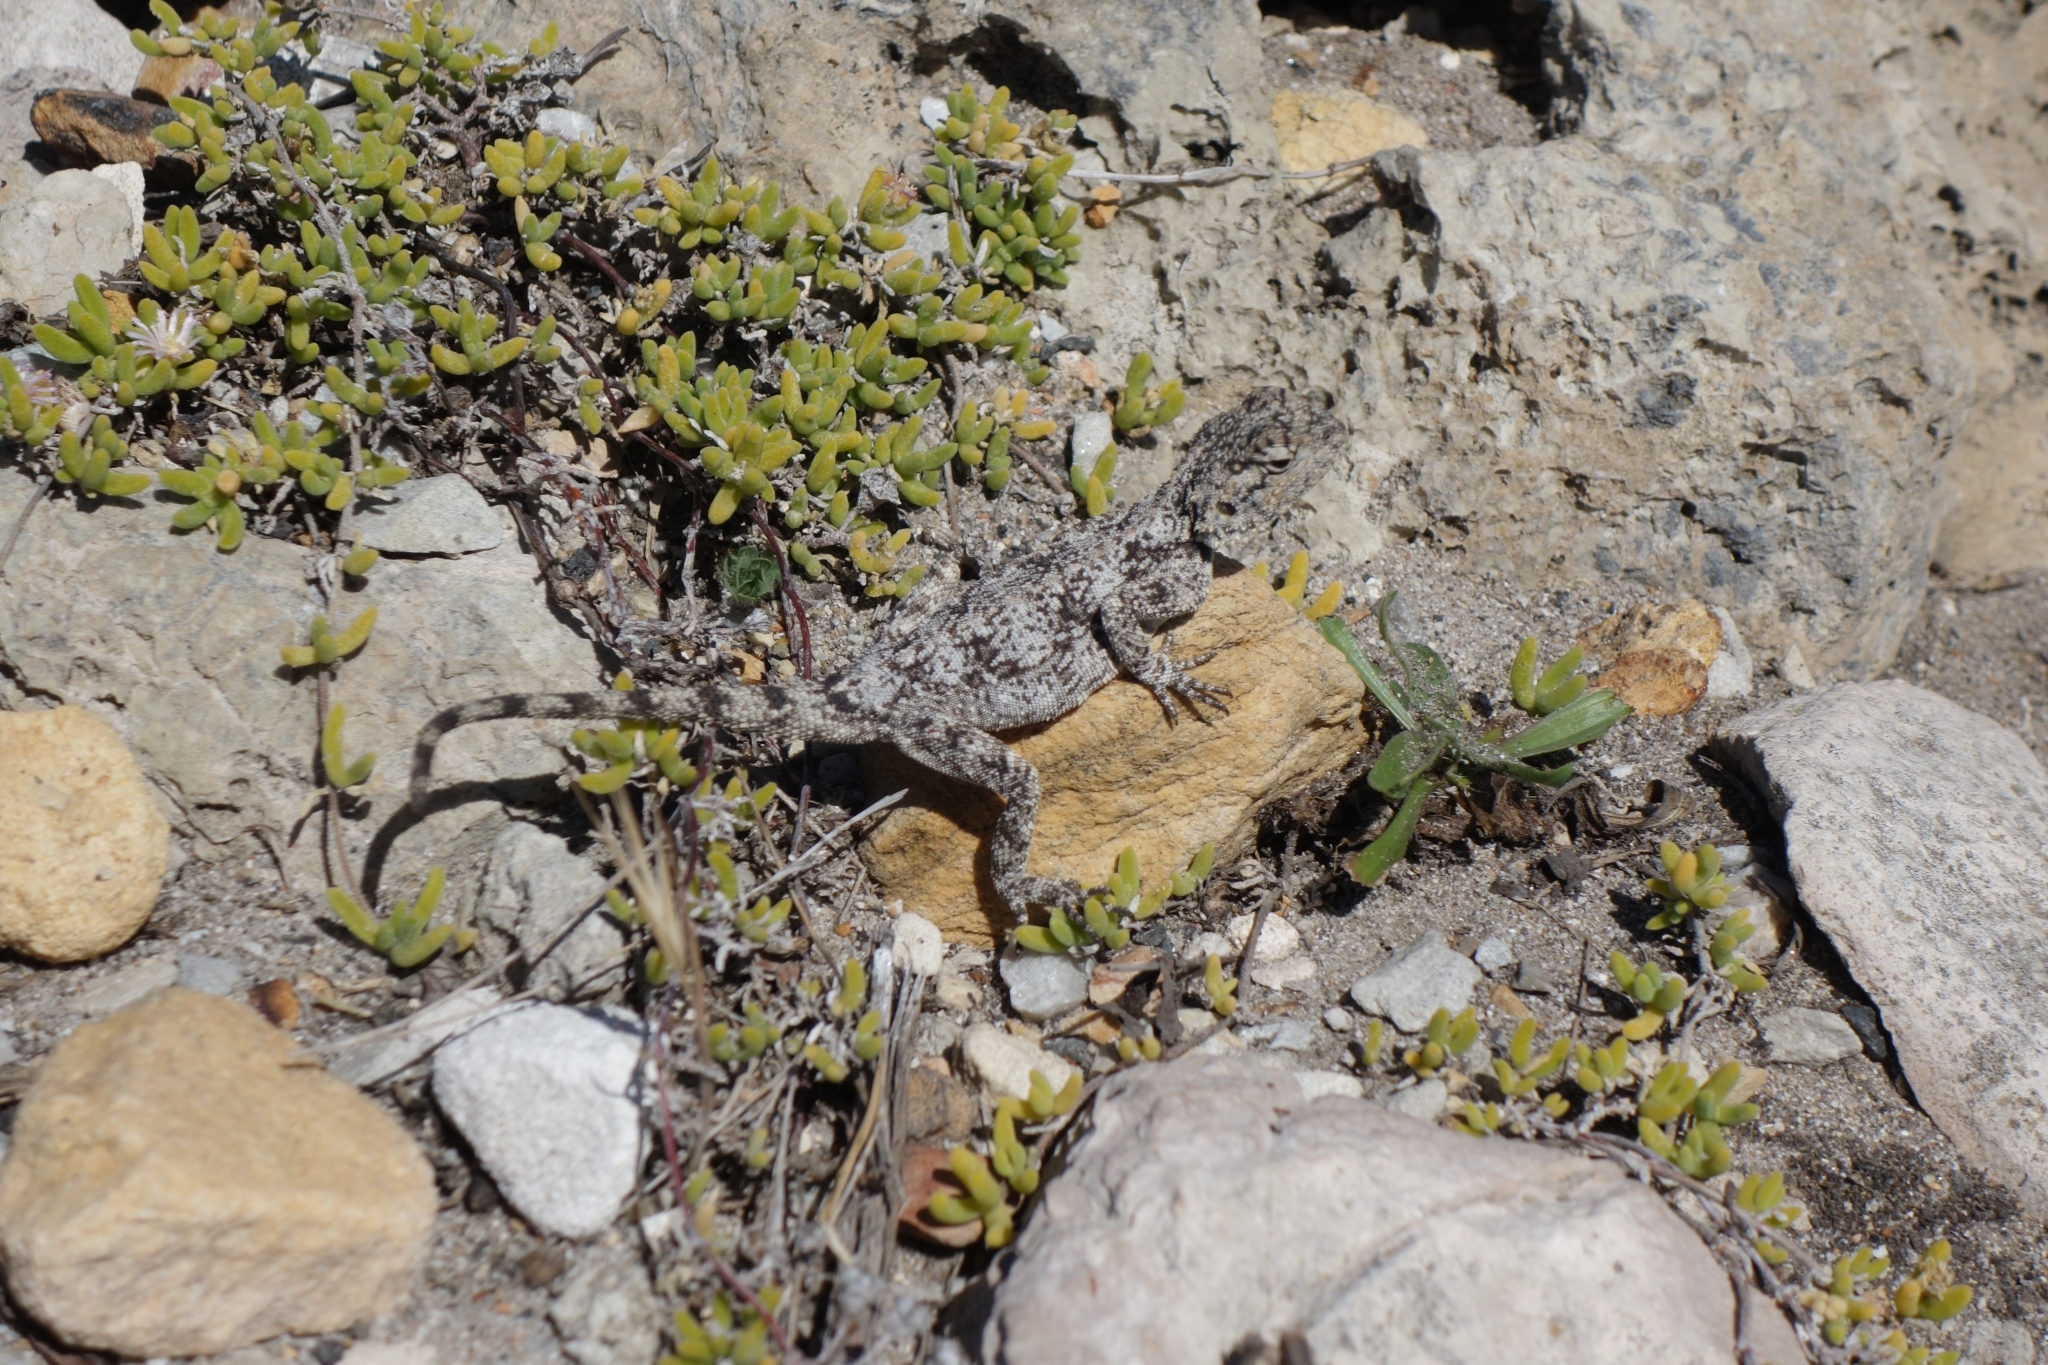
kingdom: Animalia
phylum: Chordata
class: Squamata
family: Agamidae
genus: Agama
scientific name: Agama atra
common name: Southern african rock agama
